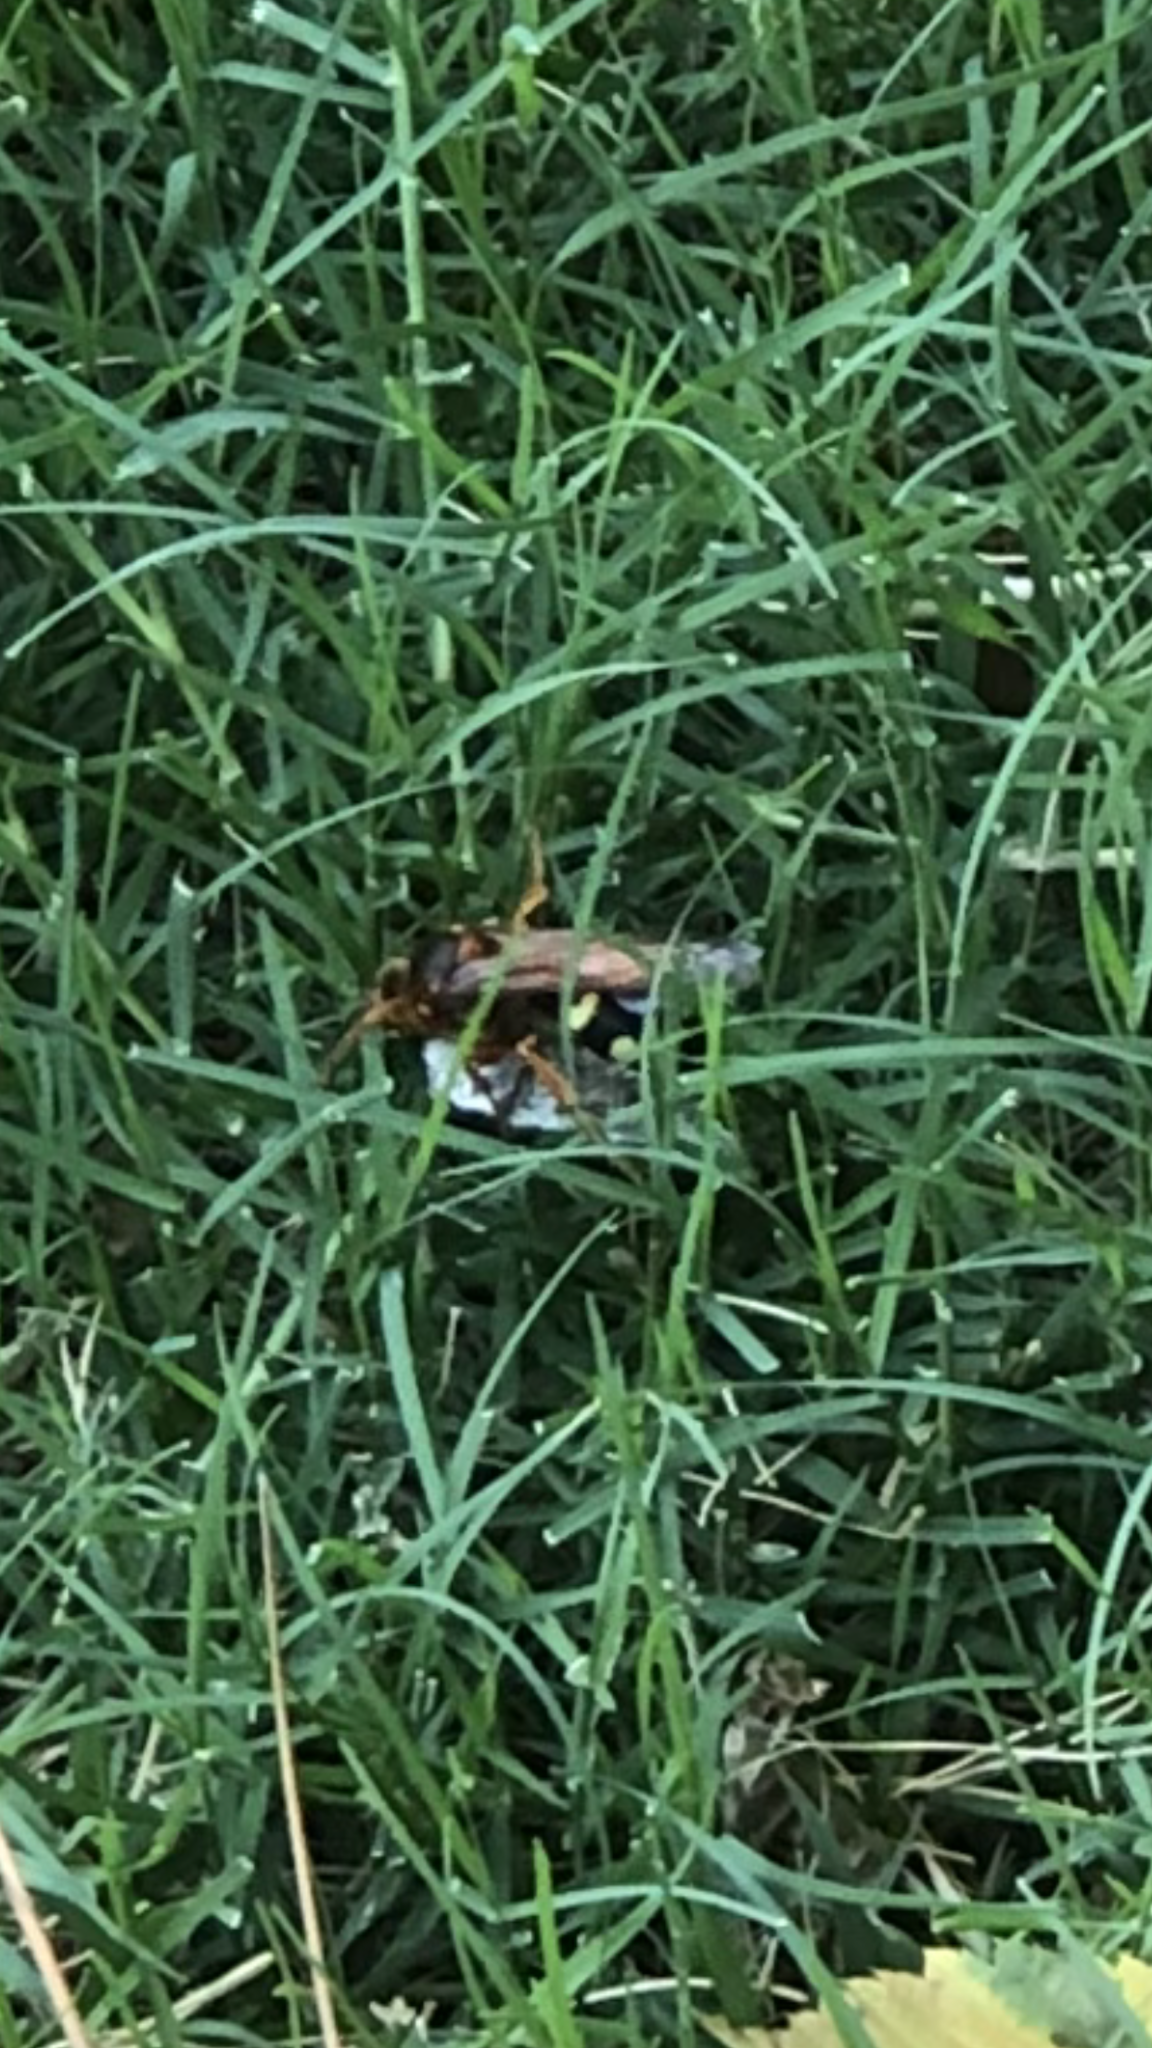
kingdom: Animalia
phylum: Arthropoda
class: Insecta
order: Hymenoptera
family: Crabronidae
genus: Sphecius
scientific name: Sphecius speciosus
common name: Cicada killer
